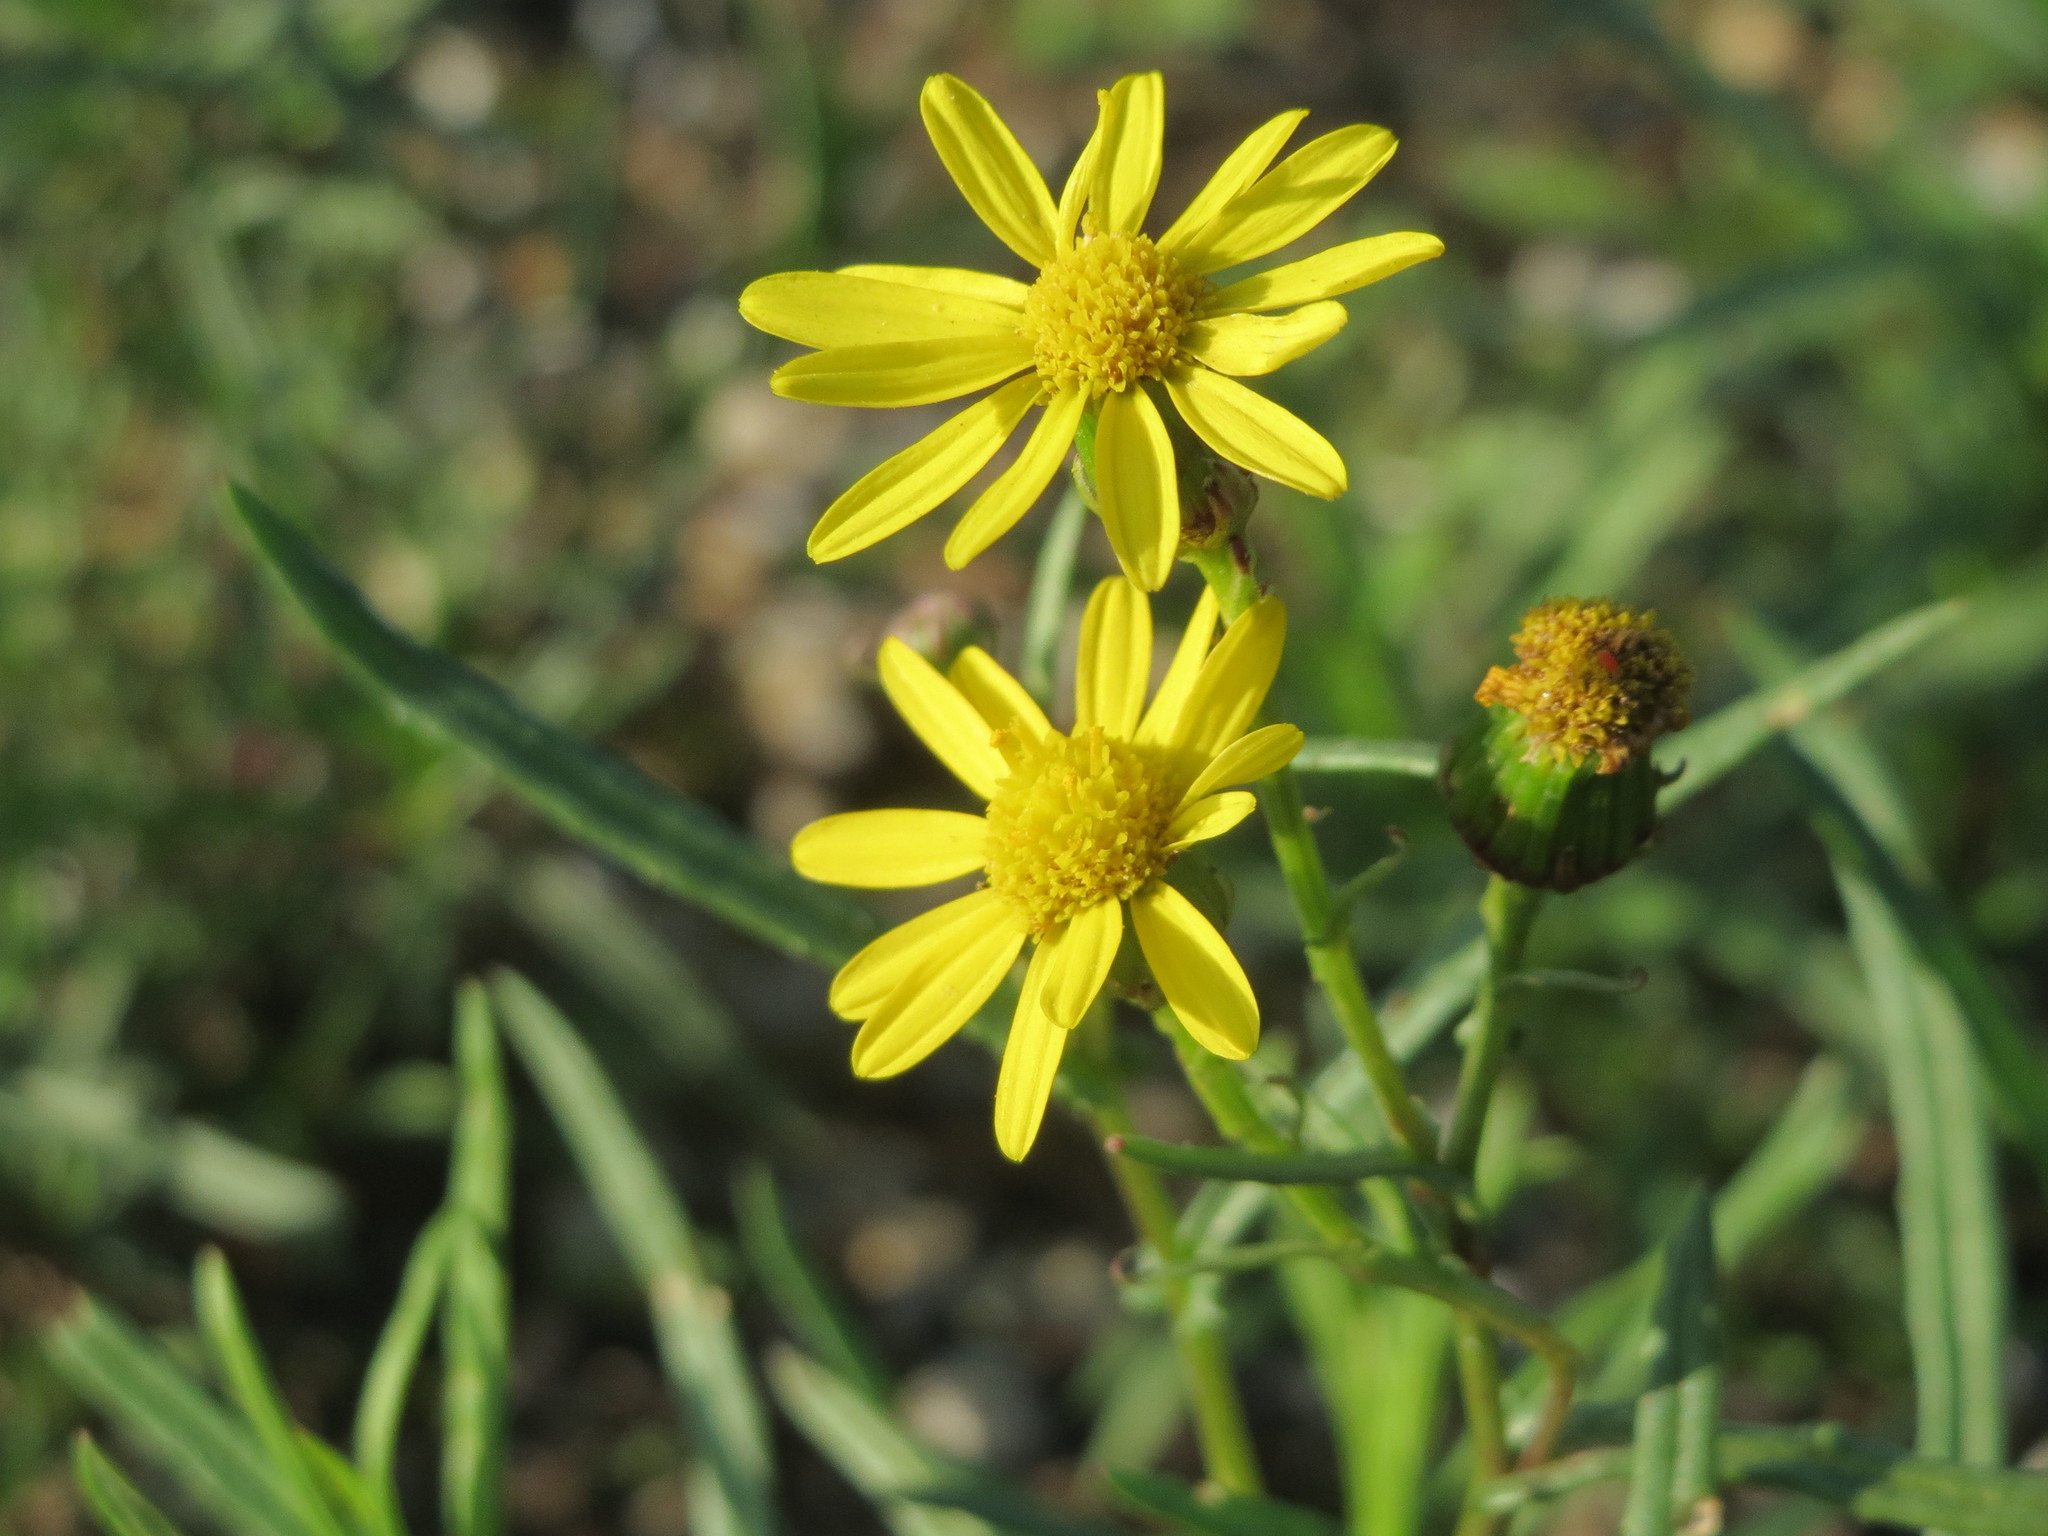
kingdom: Plantae
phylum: Tracheophyta
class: Magnoliopsida
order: Asterales
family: Asteraceae
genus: Senecio
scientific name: Senecio inaequidens
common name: Narrow-leaved ragwort
